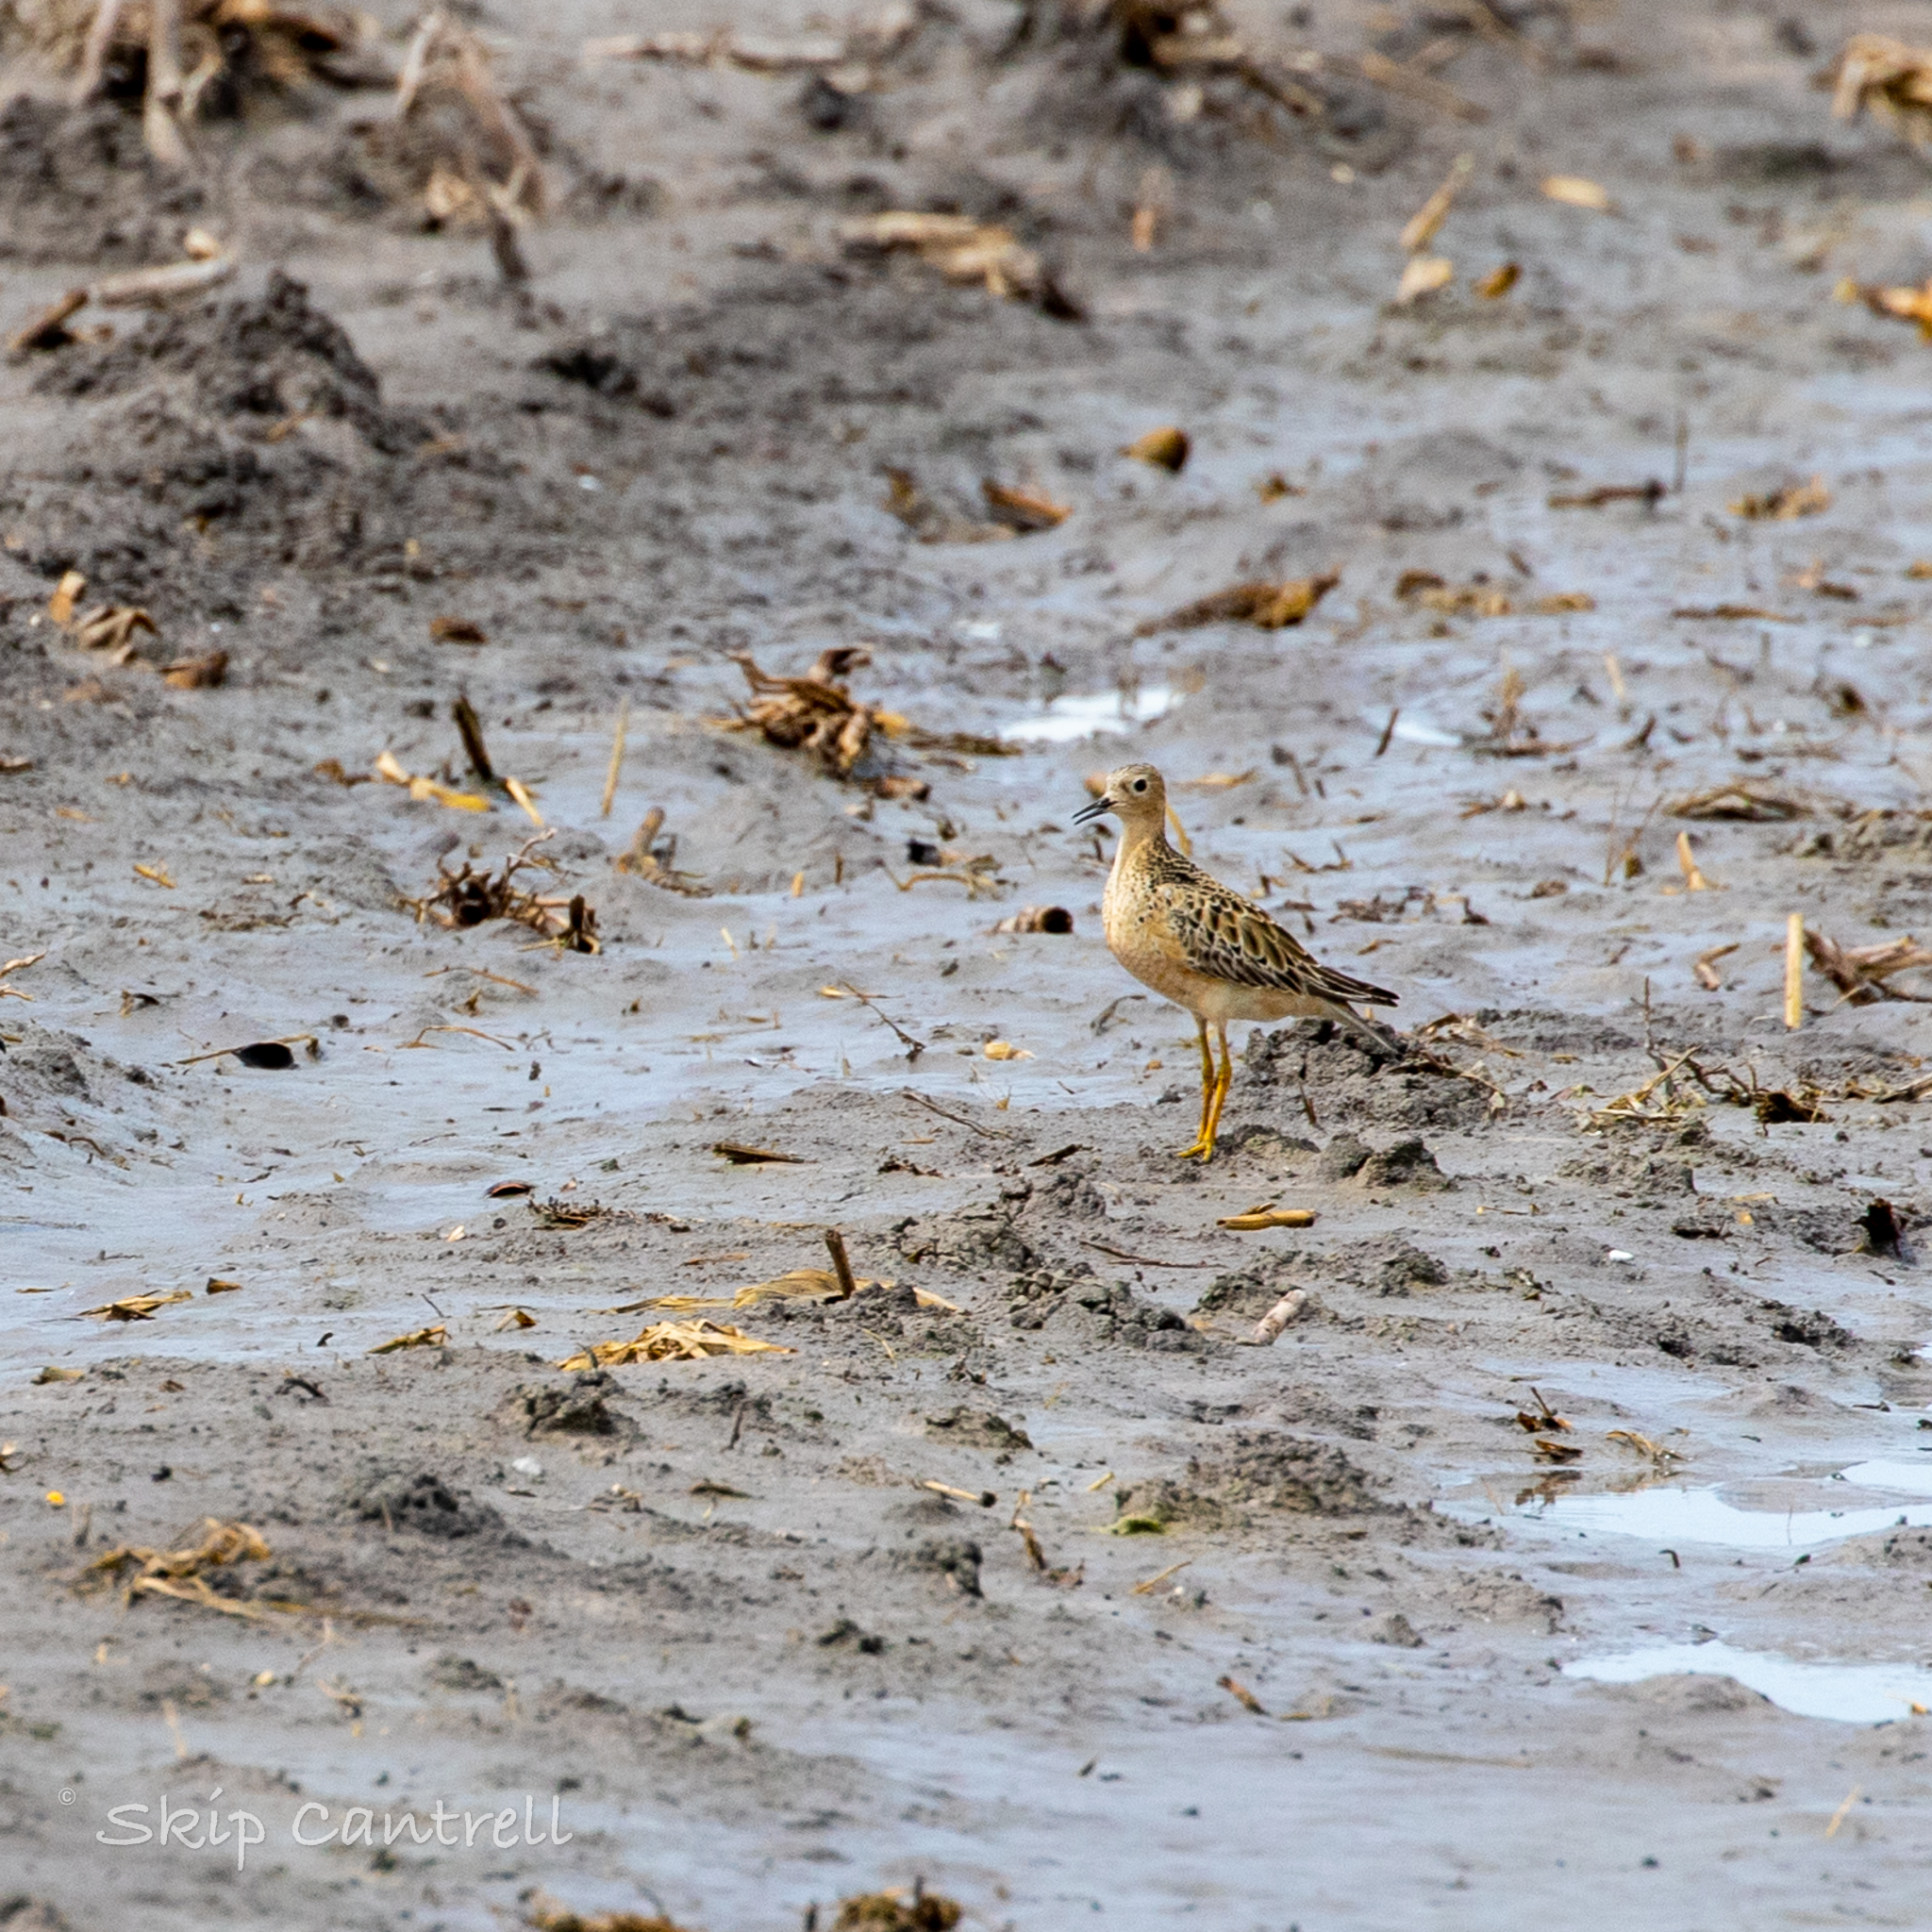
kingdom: Animalia
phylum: Chordata
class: Aves
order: Charadriiformes
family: Scolopacidae
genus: Calidris
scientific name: Calidris subruficollis
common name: Buff-breasted sandpiper
